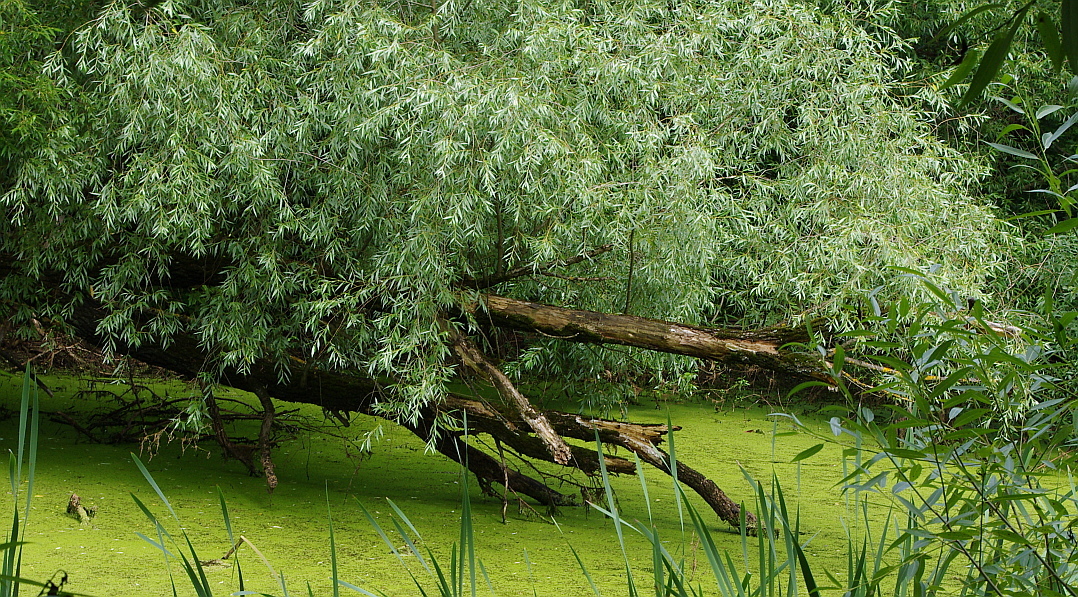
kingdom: Plantae
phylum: Tracheophyta
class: Magnoliopsida
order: Malpighiales
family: Salicaceae
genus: Salix
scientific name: Salix alba
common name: White willow
